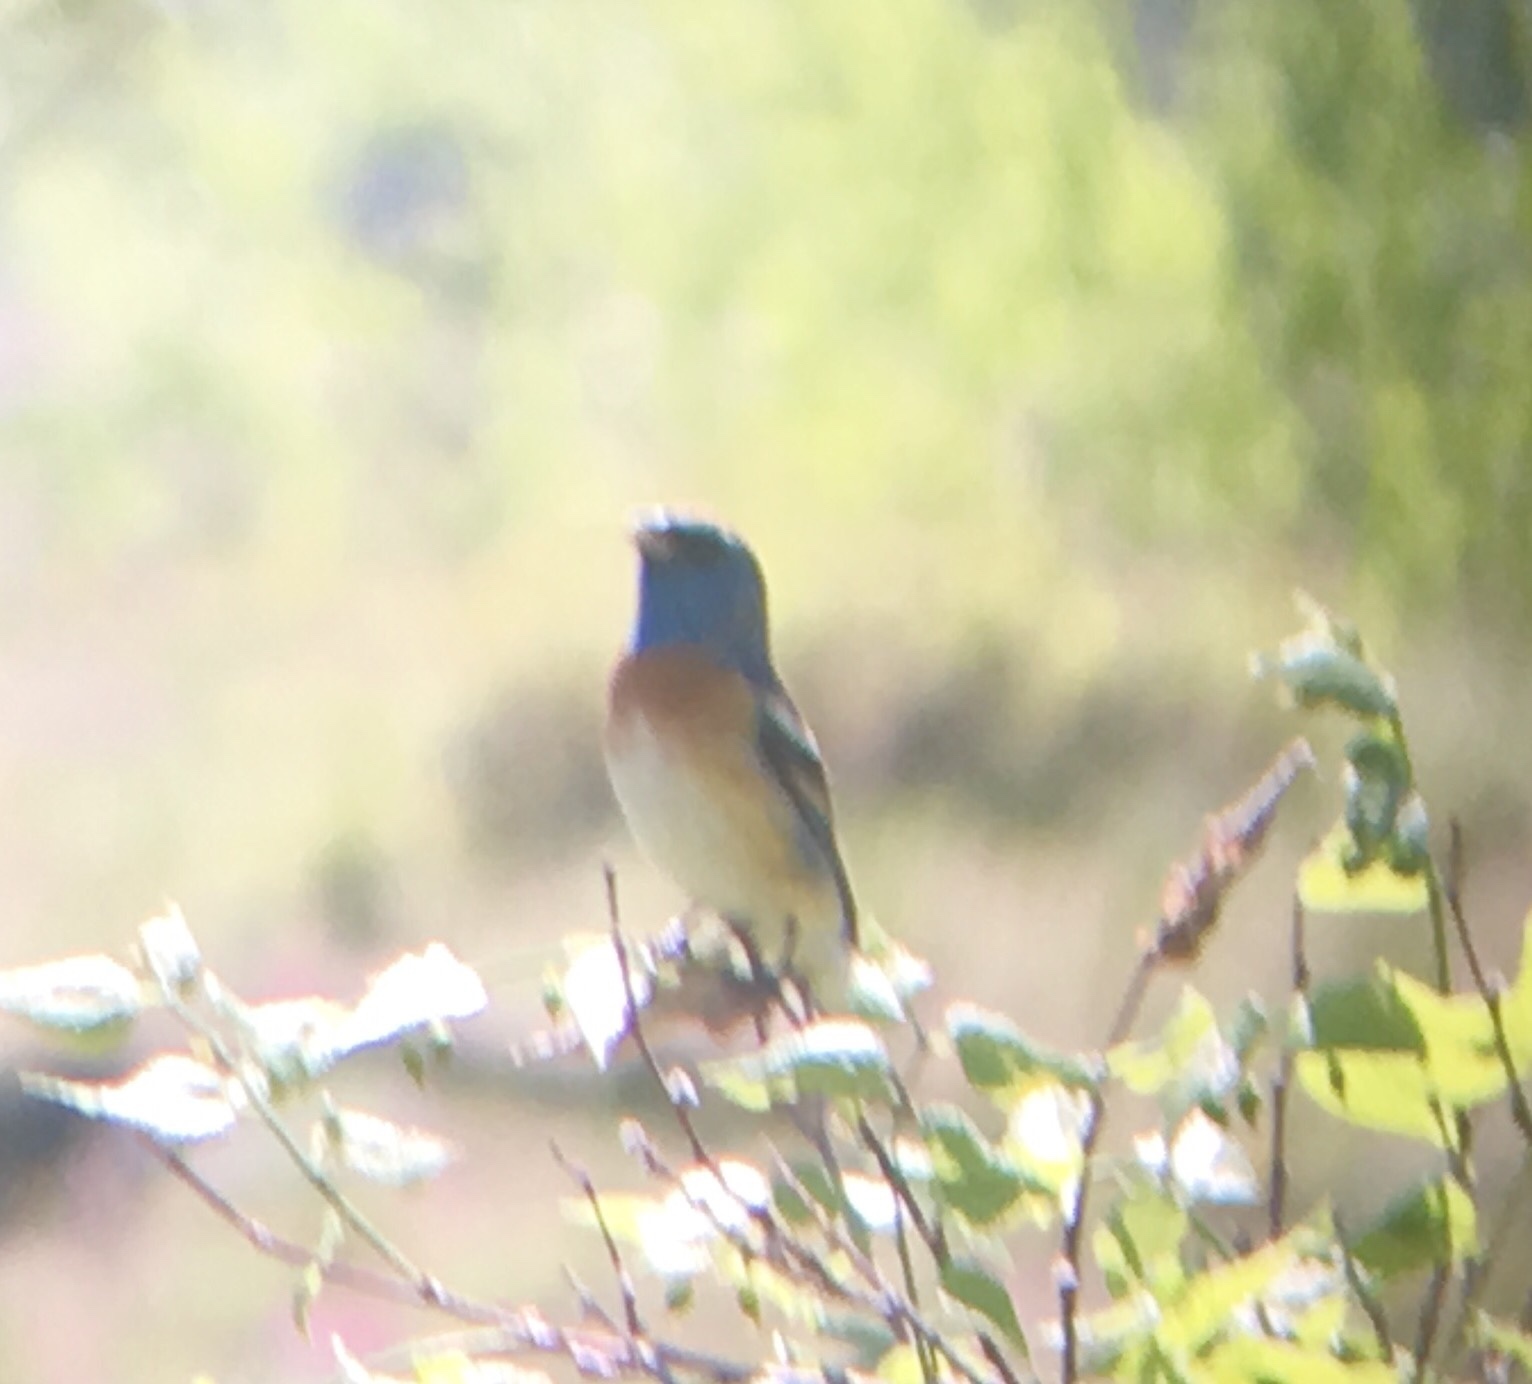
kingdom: Animalia
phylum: Chordata
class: Aves
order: Passeriformes
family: Cardinalidae
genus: Passerina
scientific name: Passerina amoena
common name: Lazuli bunting
